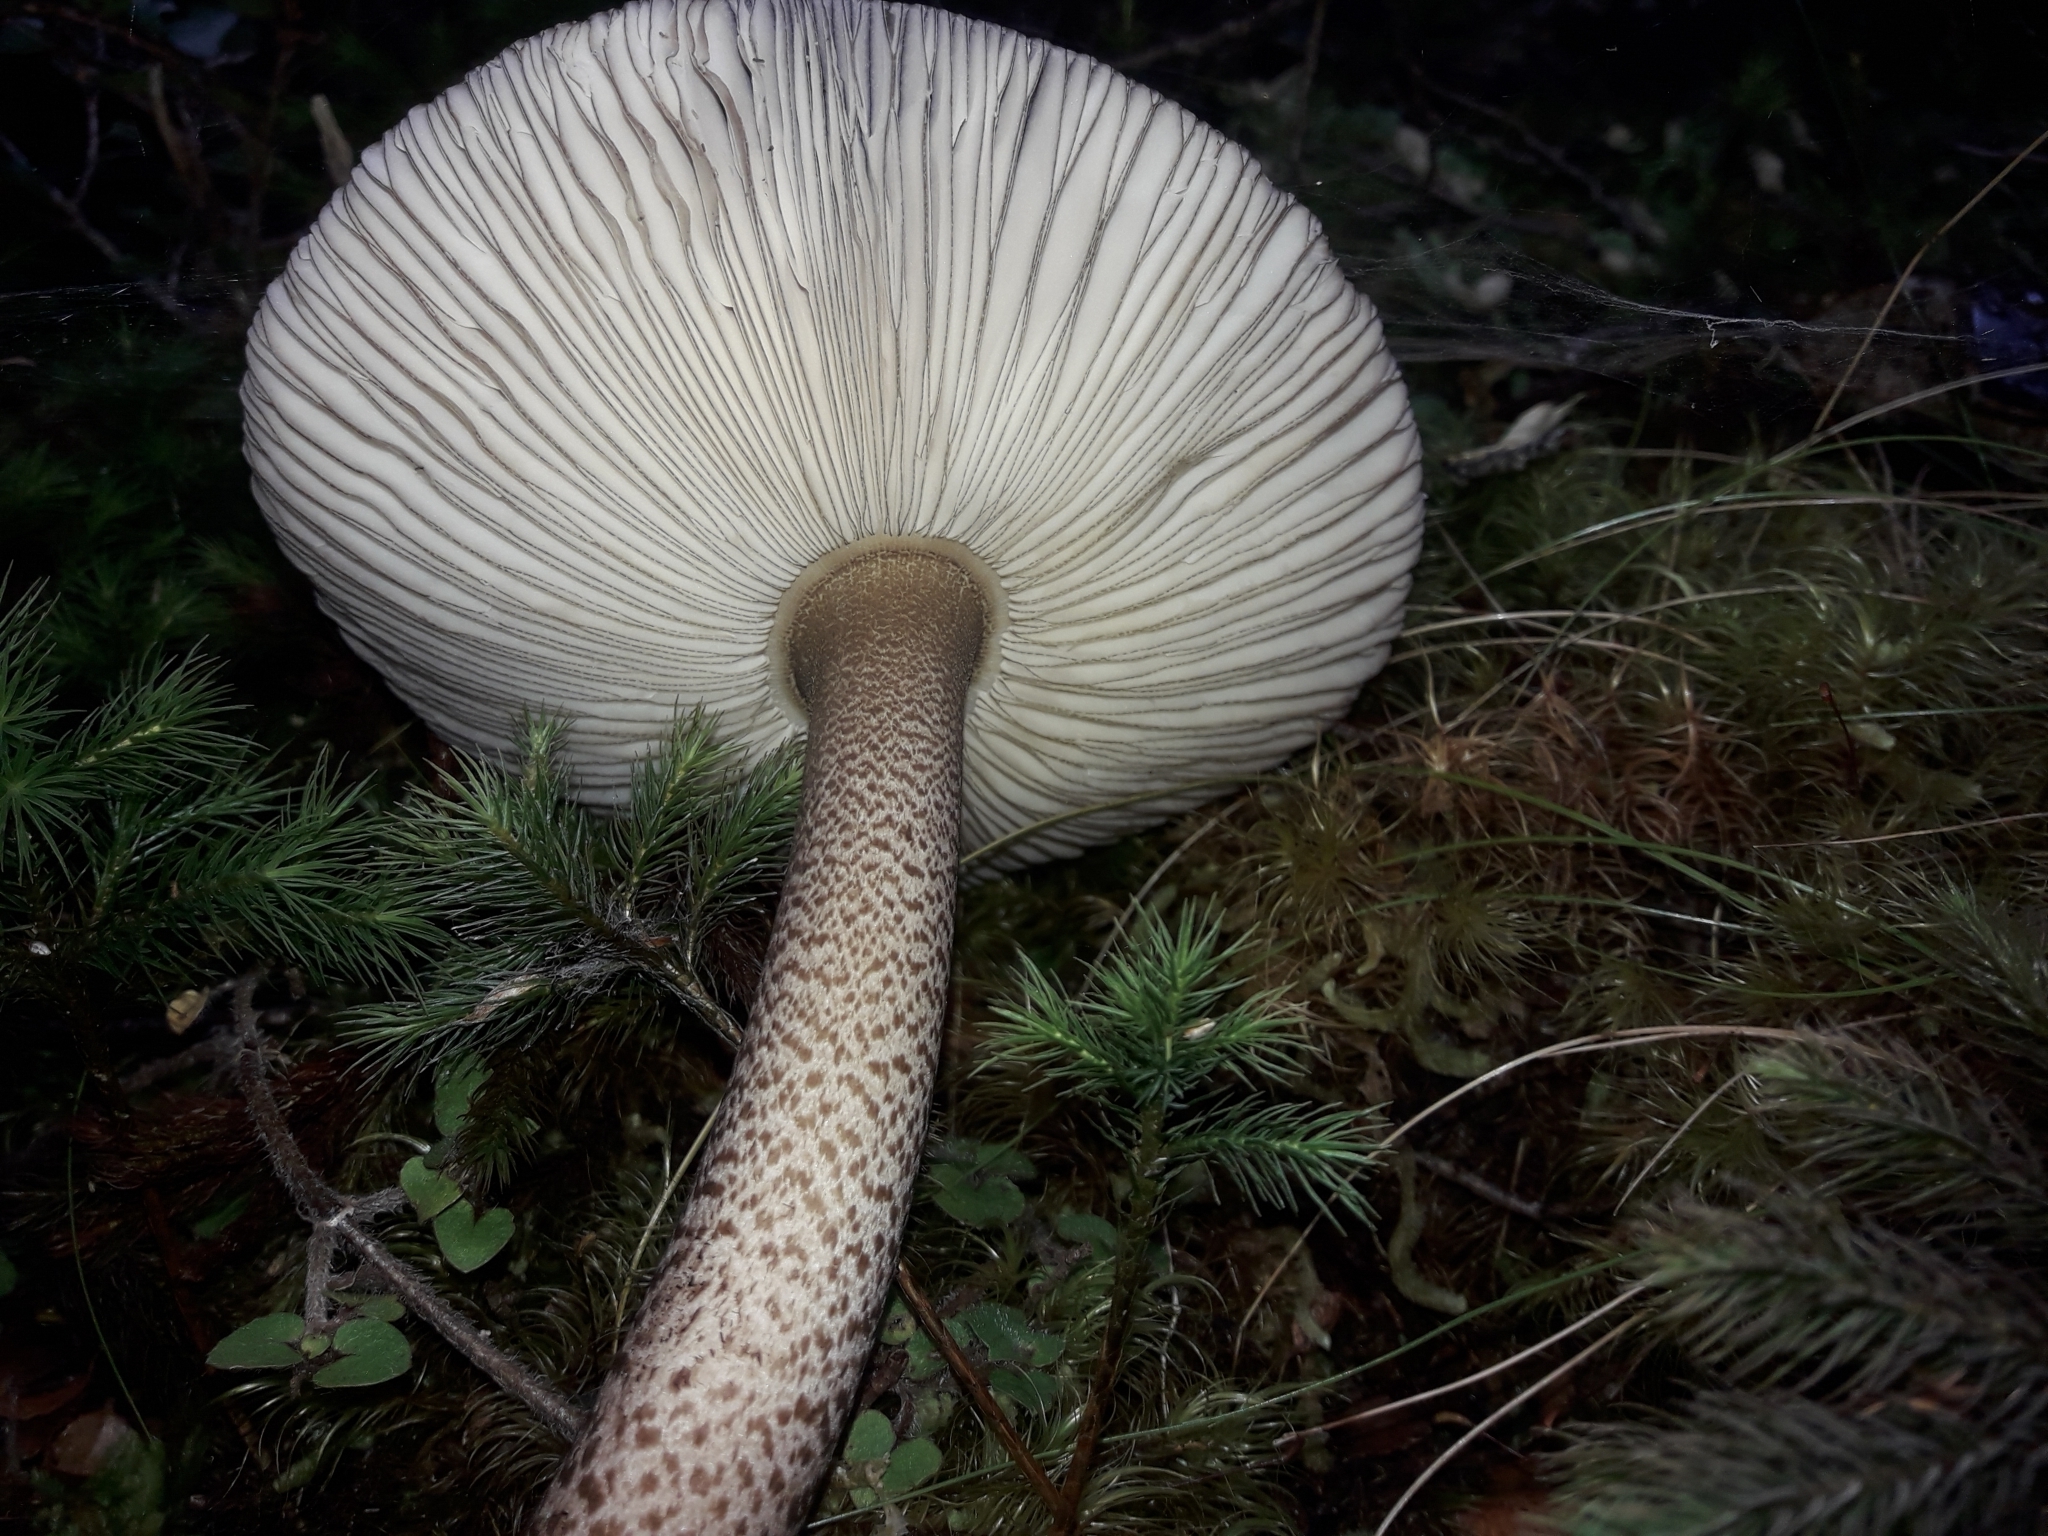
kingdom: Fungi
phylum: Basidiomycota
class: Agaricomycetes
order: Agaricales
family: Amanitaceae
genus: Amanita
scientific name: Amanita pekeoides
